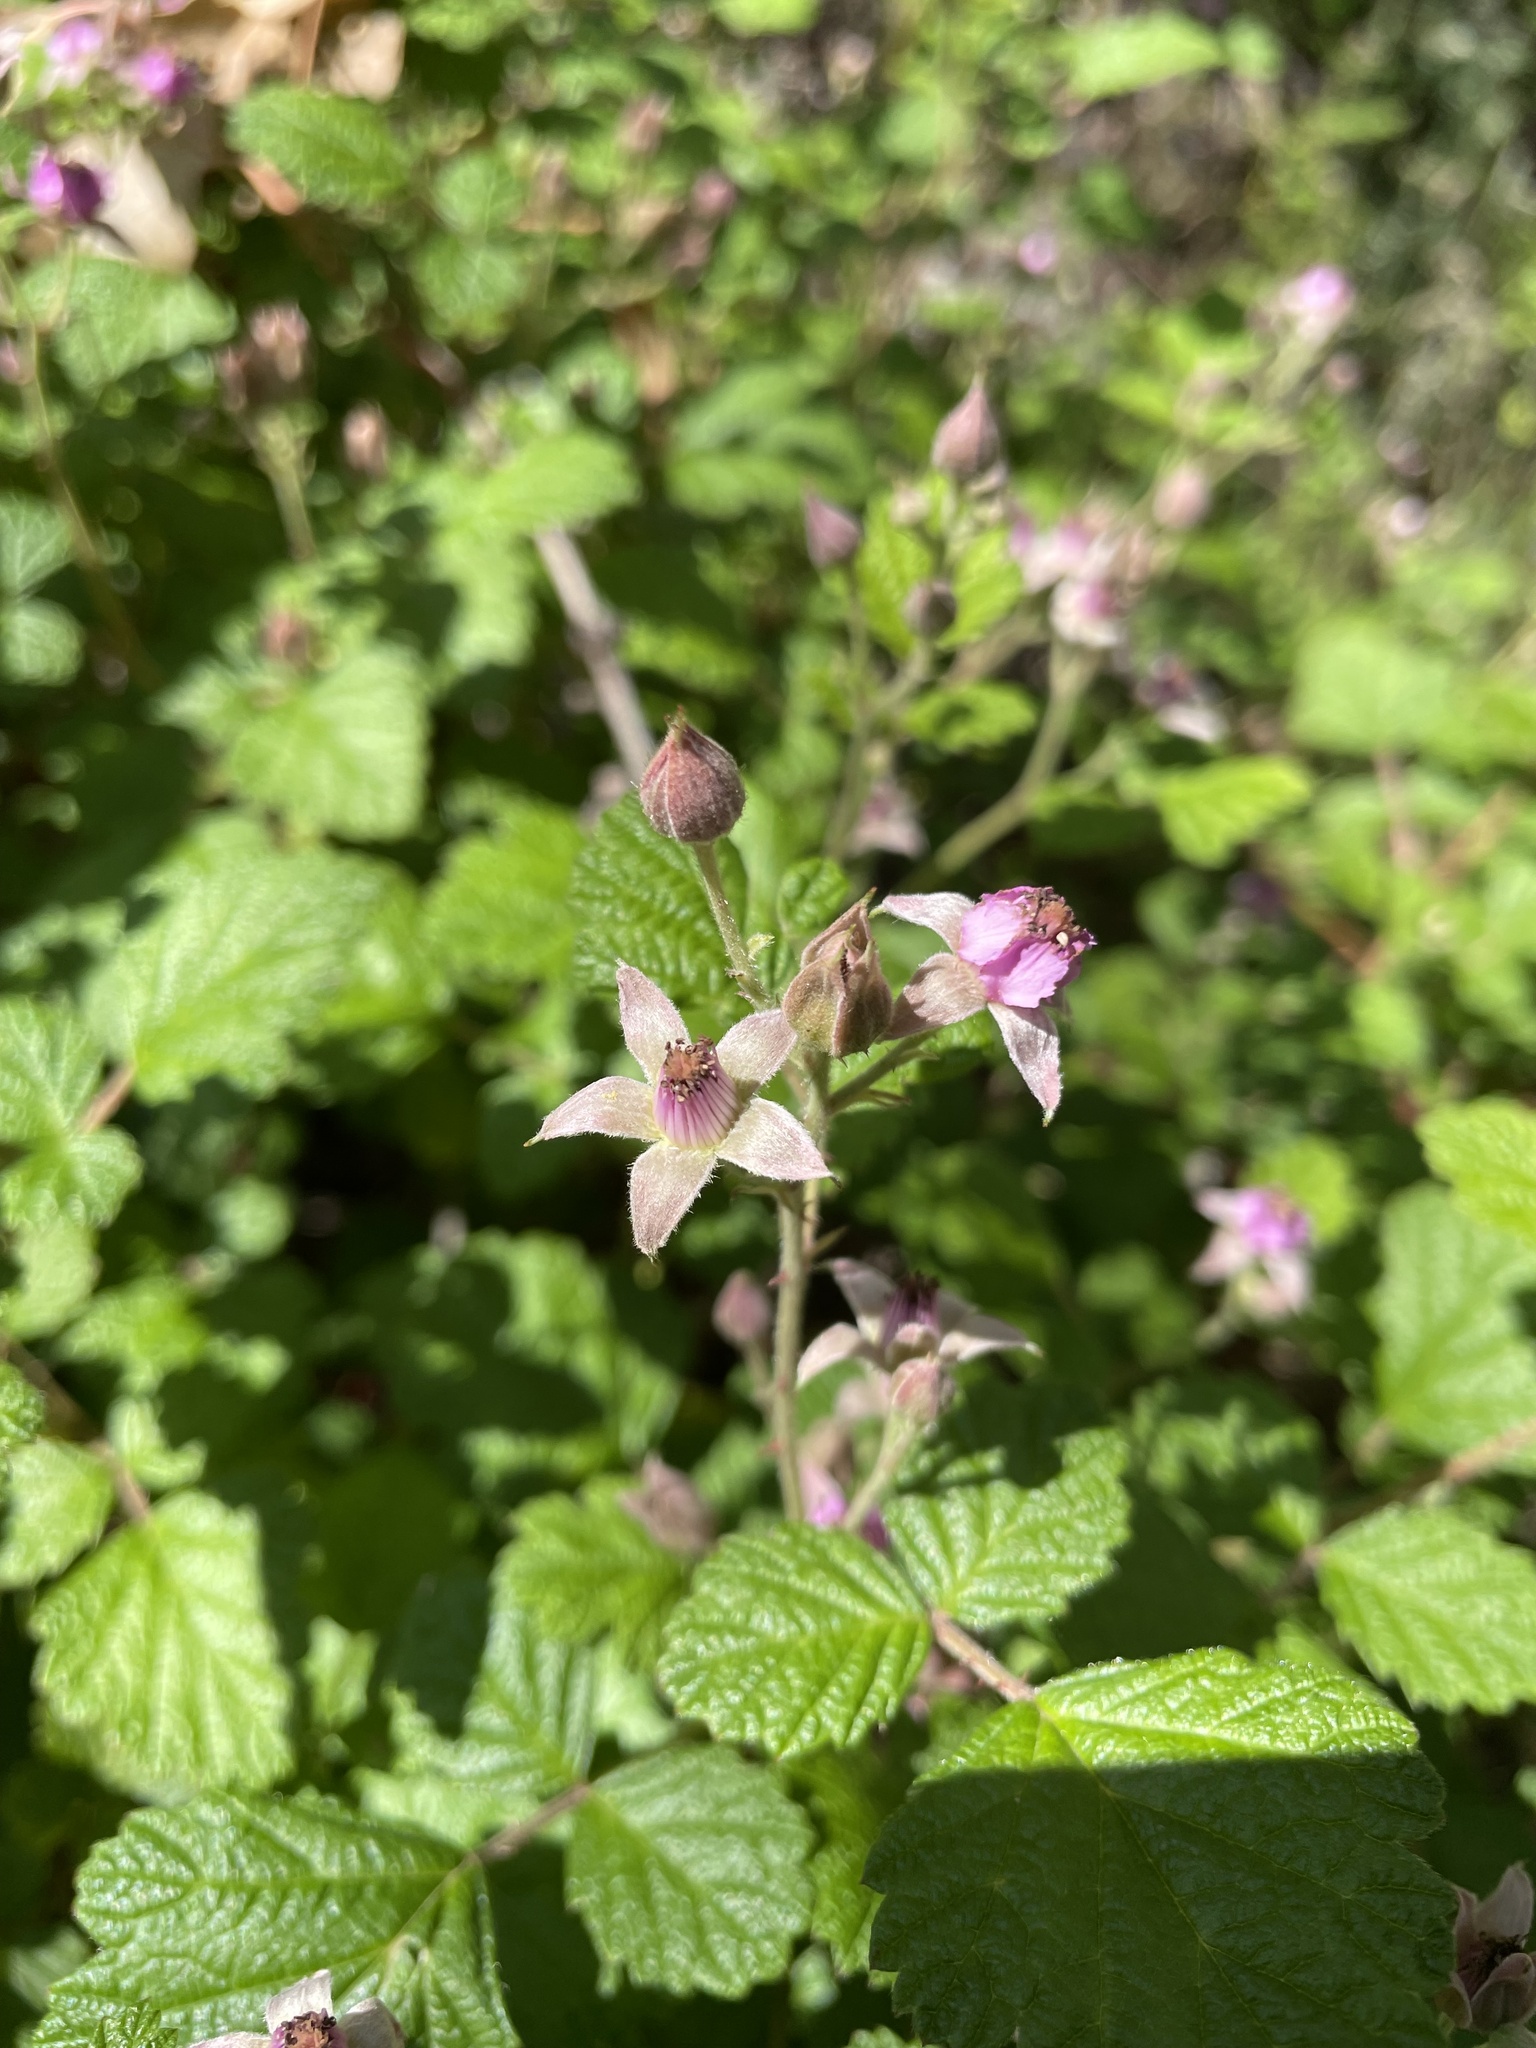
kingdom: Plantae
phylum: Tracheophyta
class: Magnoliopsida
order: Rosales
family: Rosaceae
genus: Rubus
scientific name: Rubus parvifolius
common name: Threeleaf blackberry
